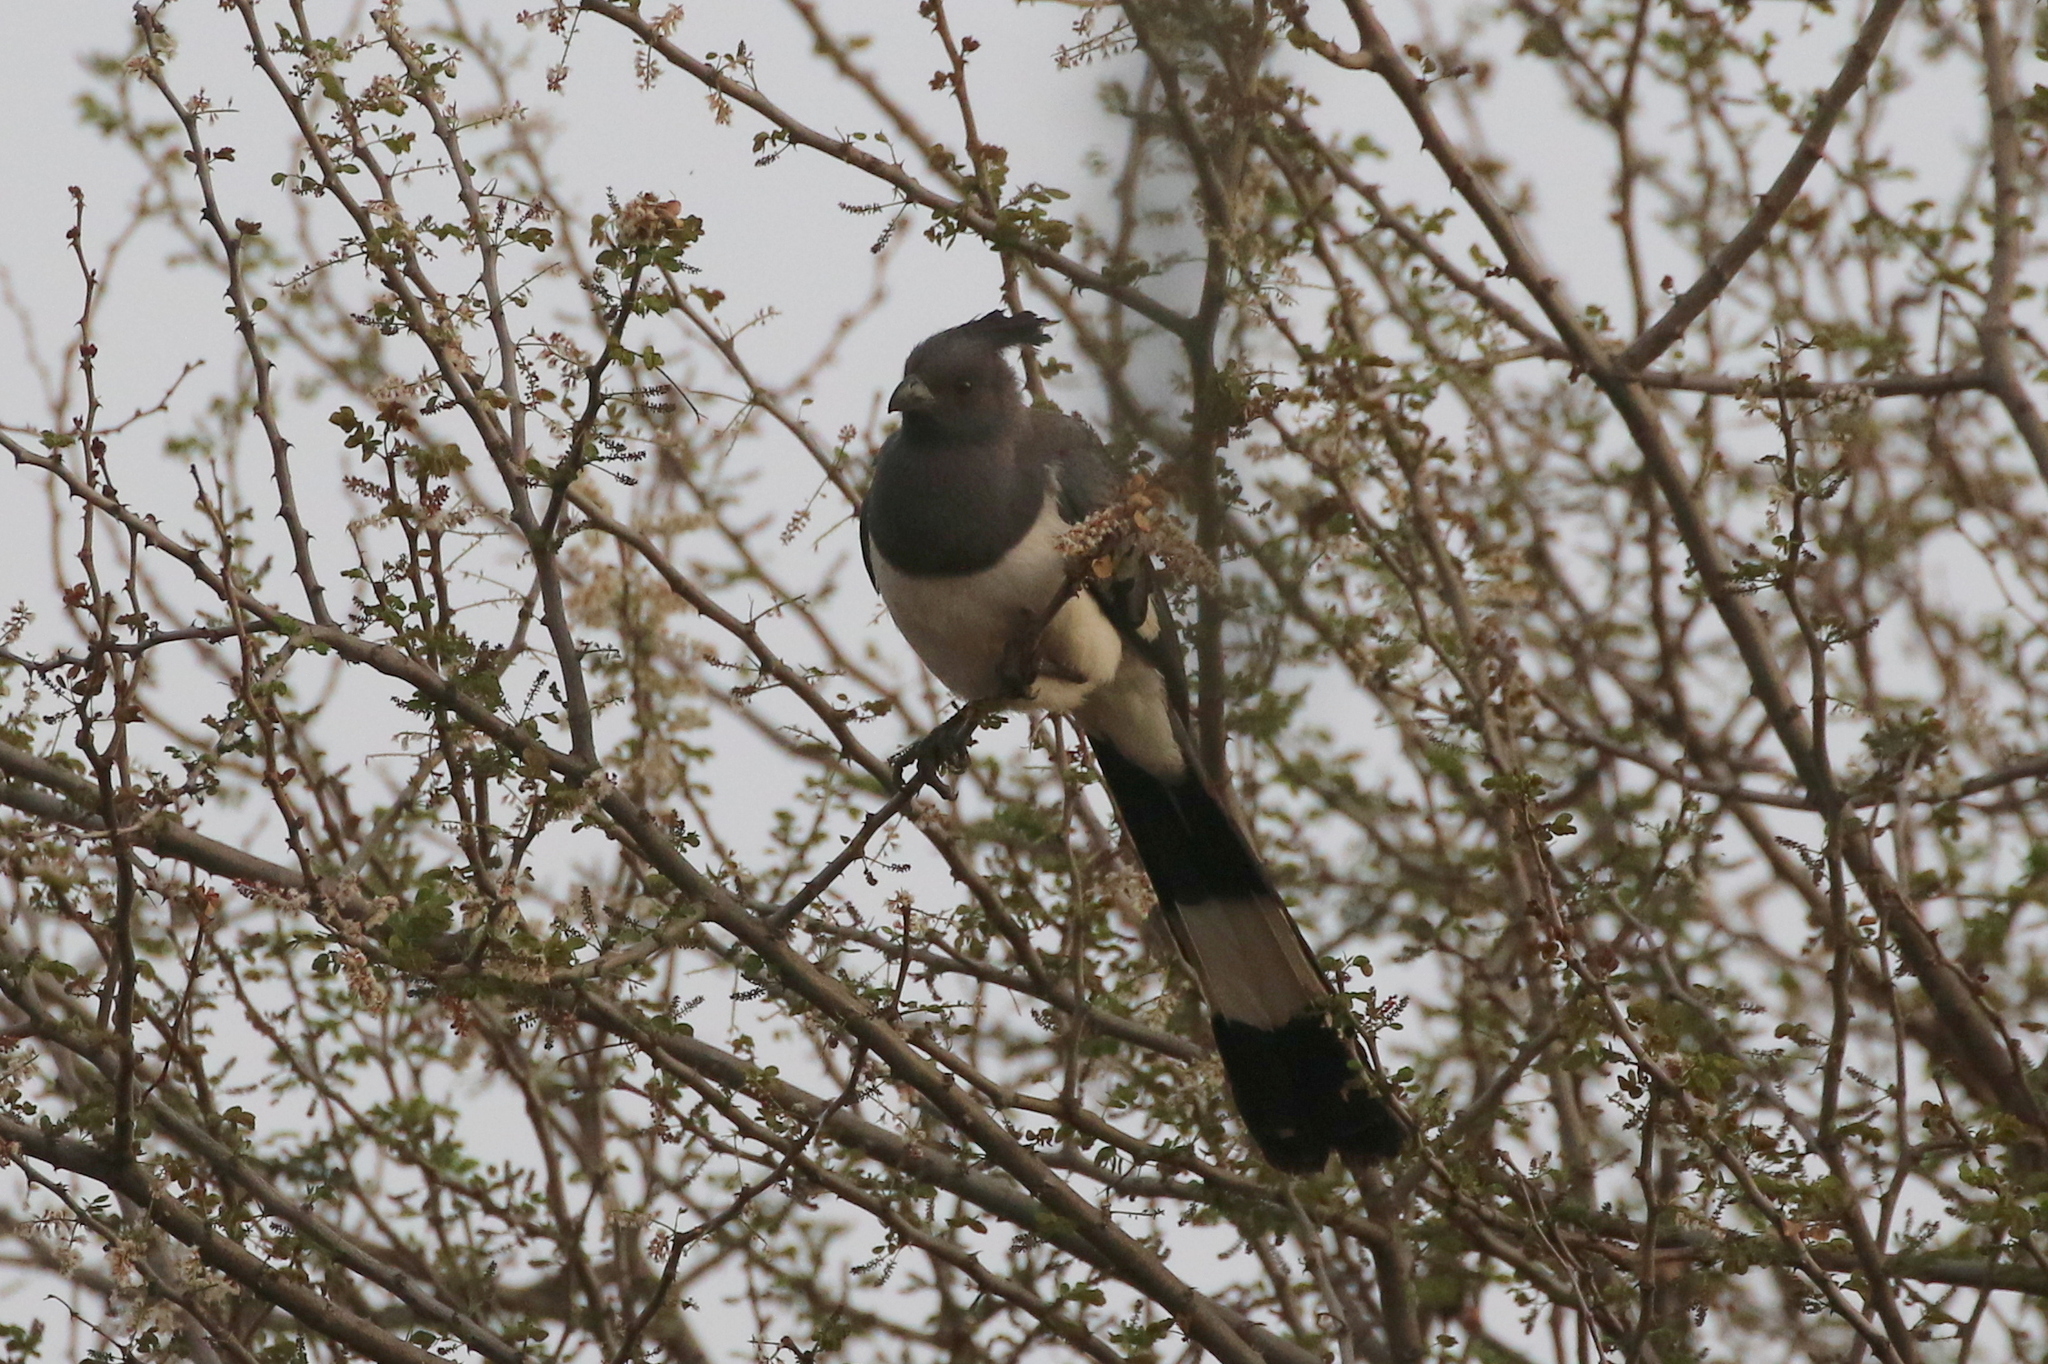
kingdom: Animalia
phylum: Chordata
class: Aves
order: Musophagiformes
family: Musophagidae
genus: Corythaixoides
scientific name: Corythaixoides leucogaster
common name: White-bellied go-away-bird
